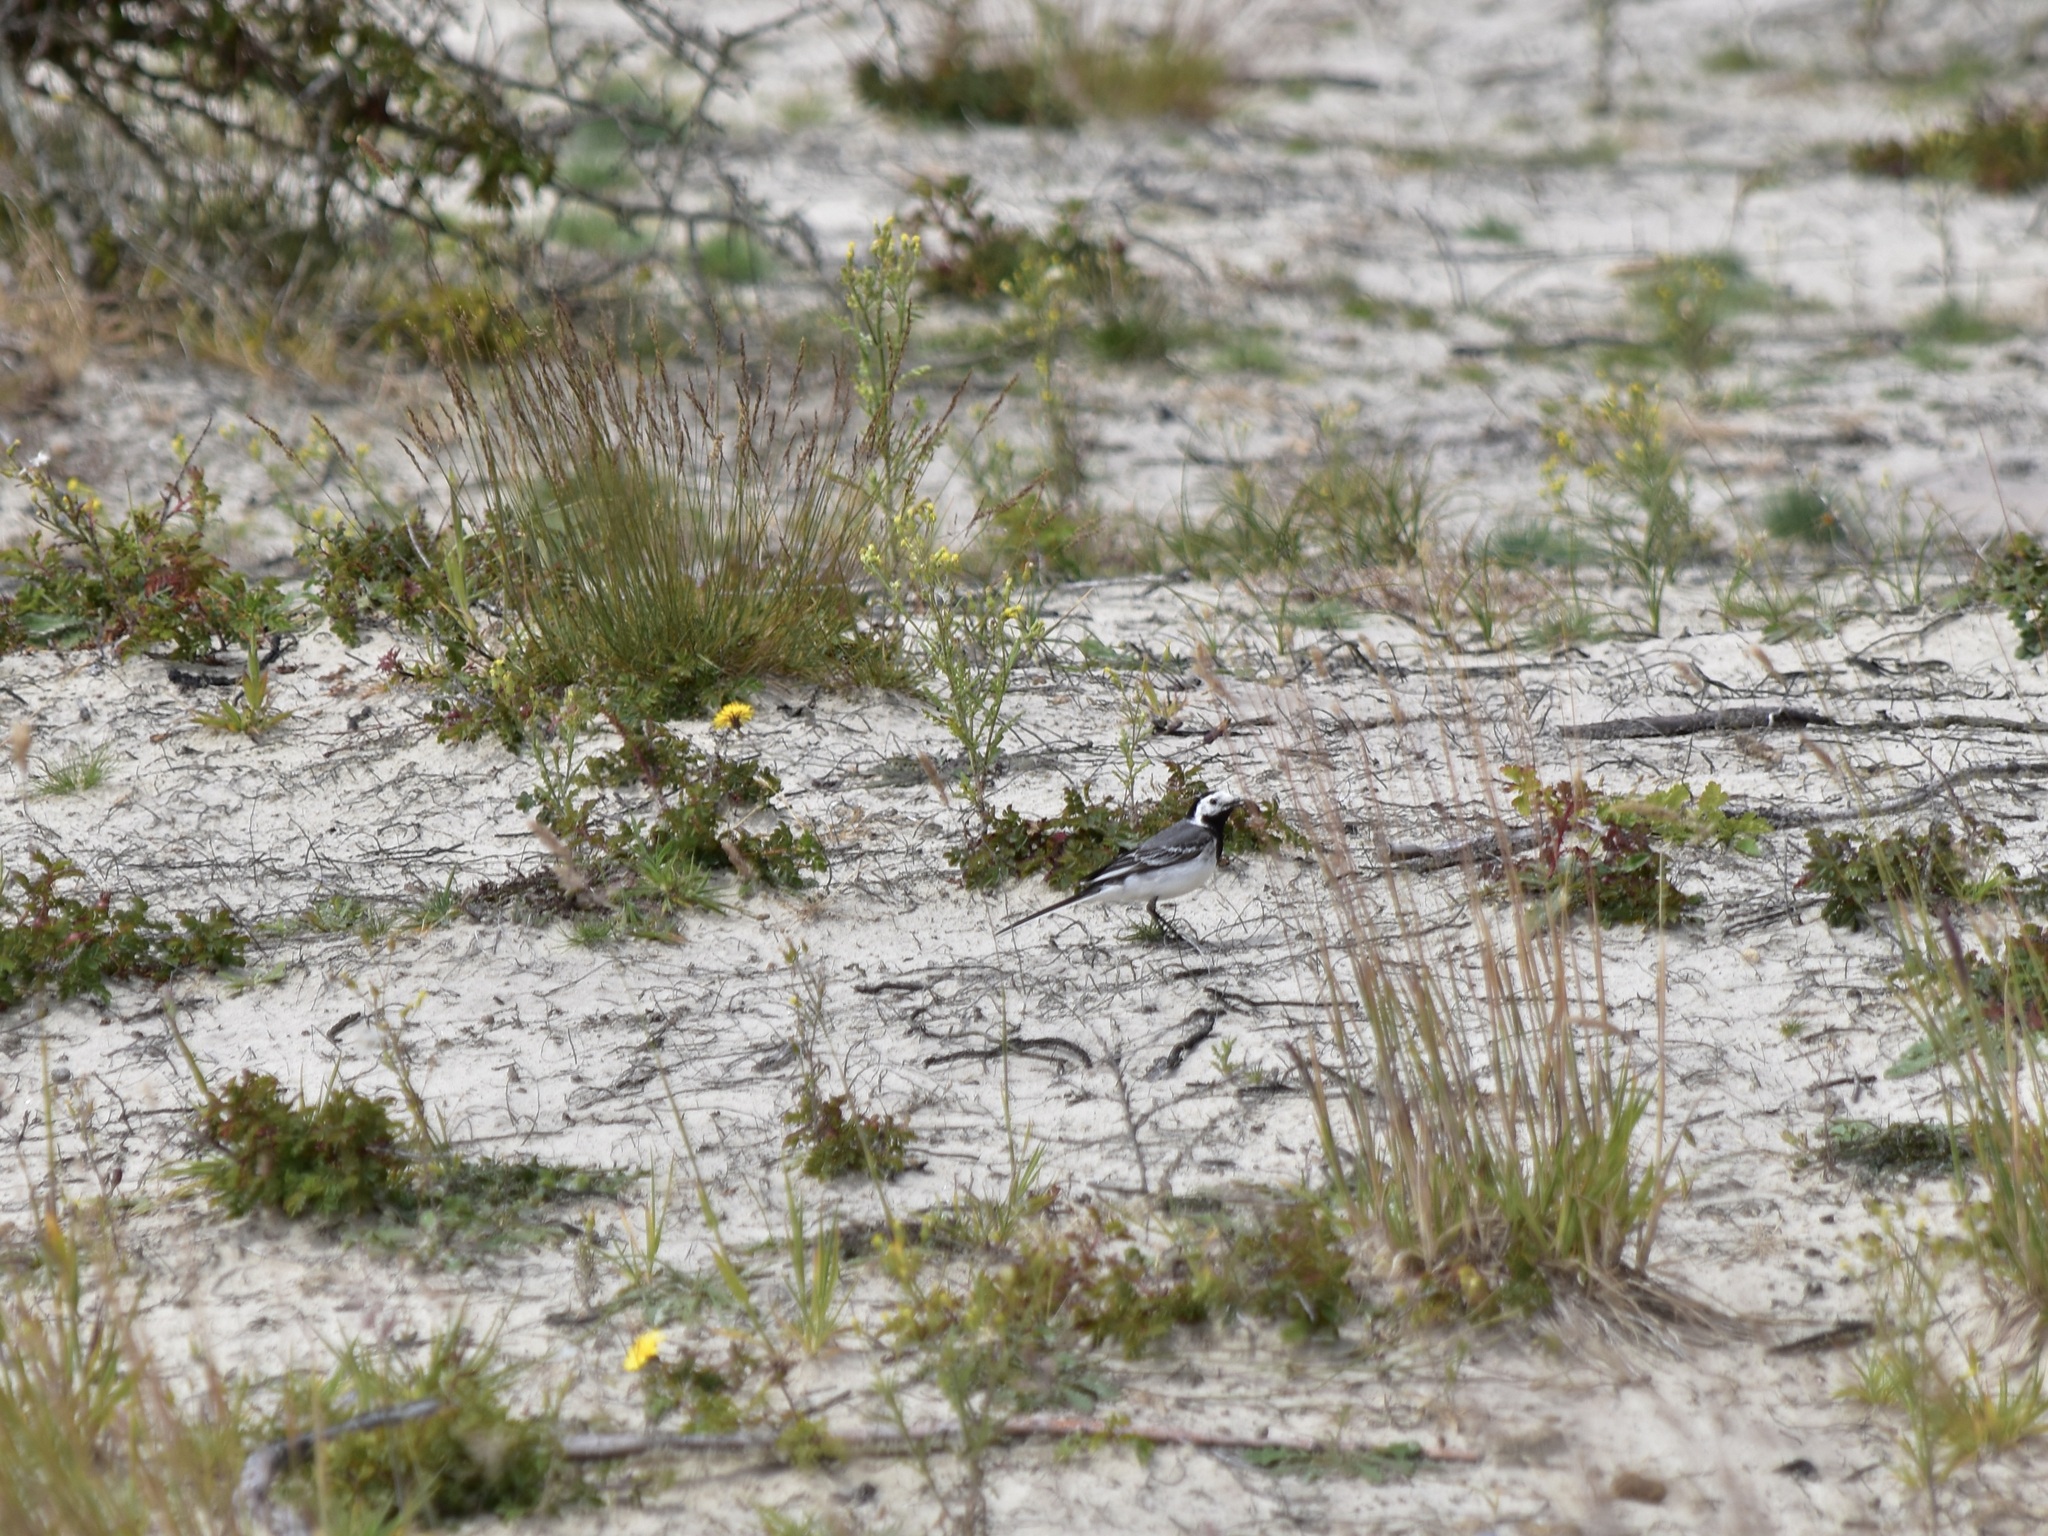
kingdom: Animalia
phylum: Chordata
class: Aves
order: Passeriformes
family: Motacillidae
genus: Motacilla
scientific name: Motacilla alba
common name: White wagtail
